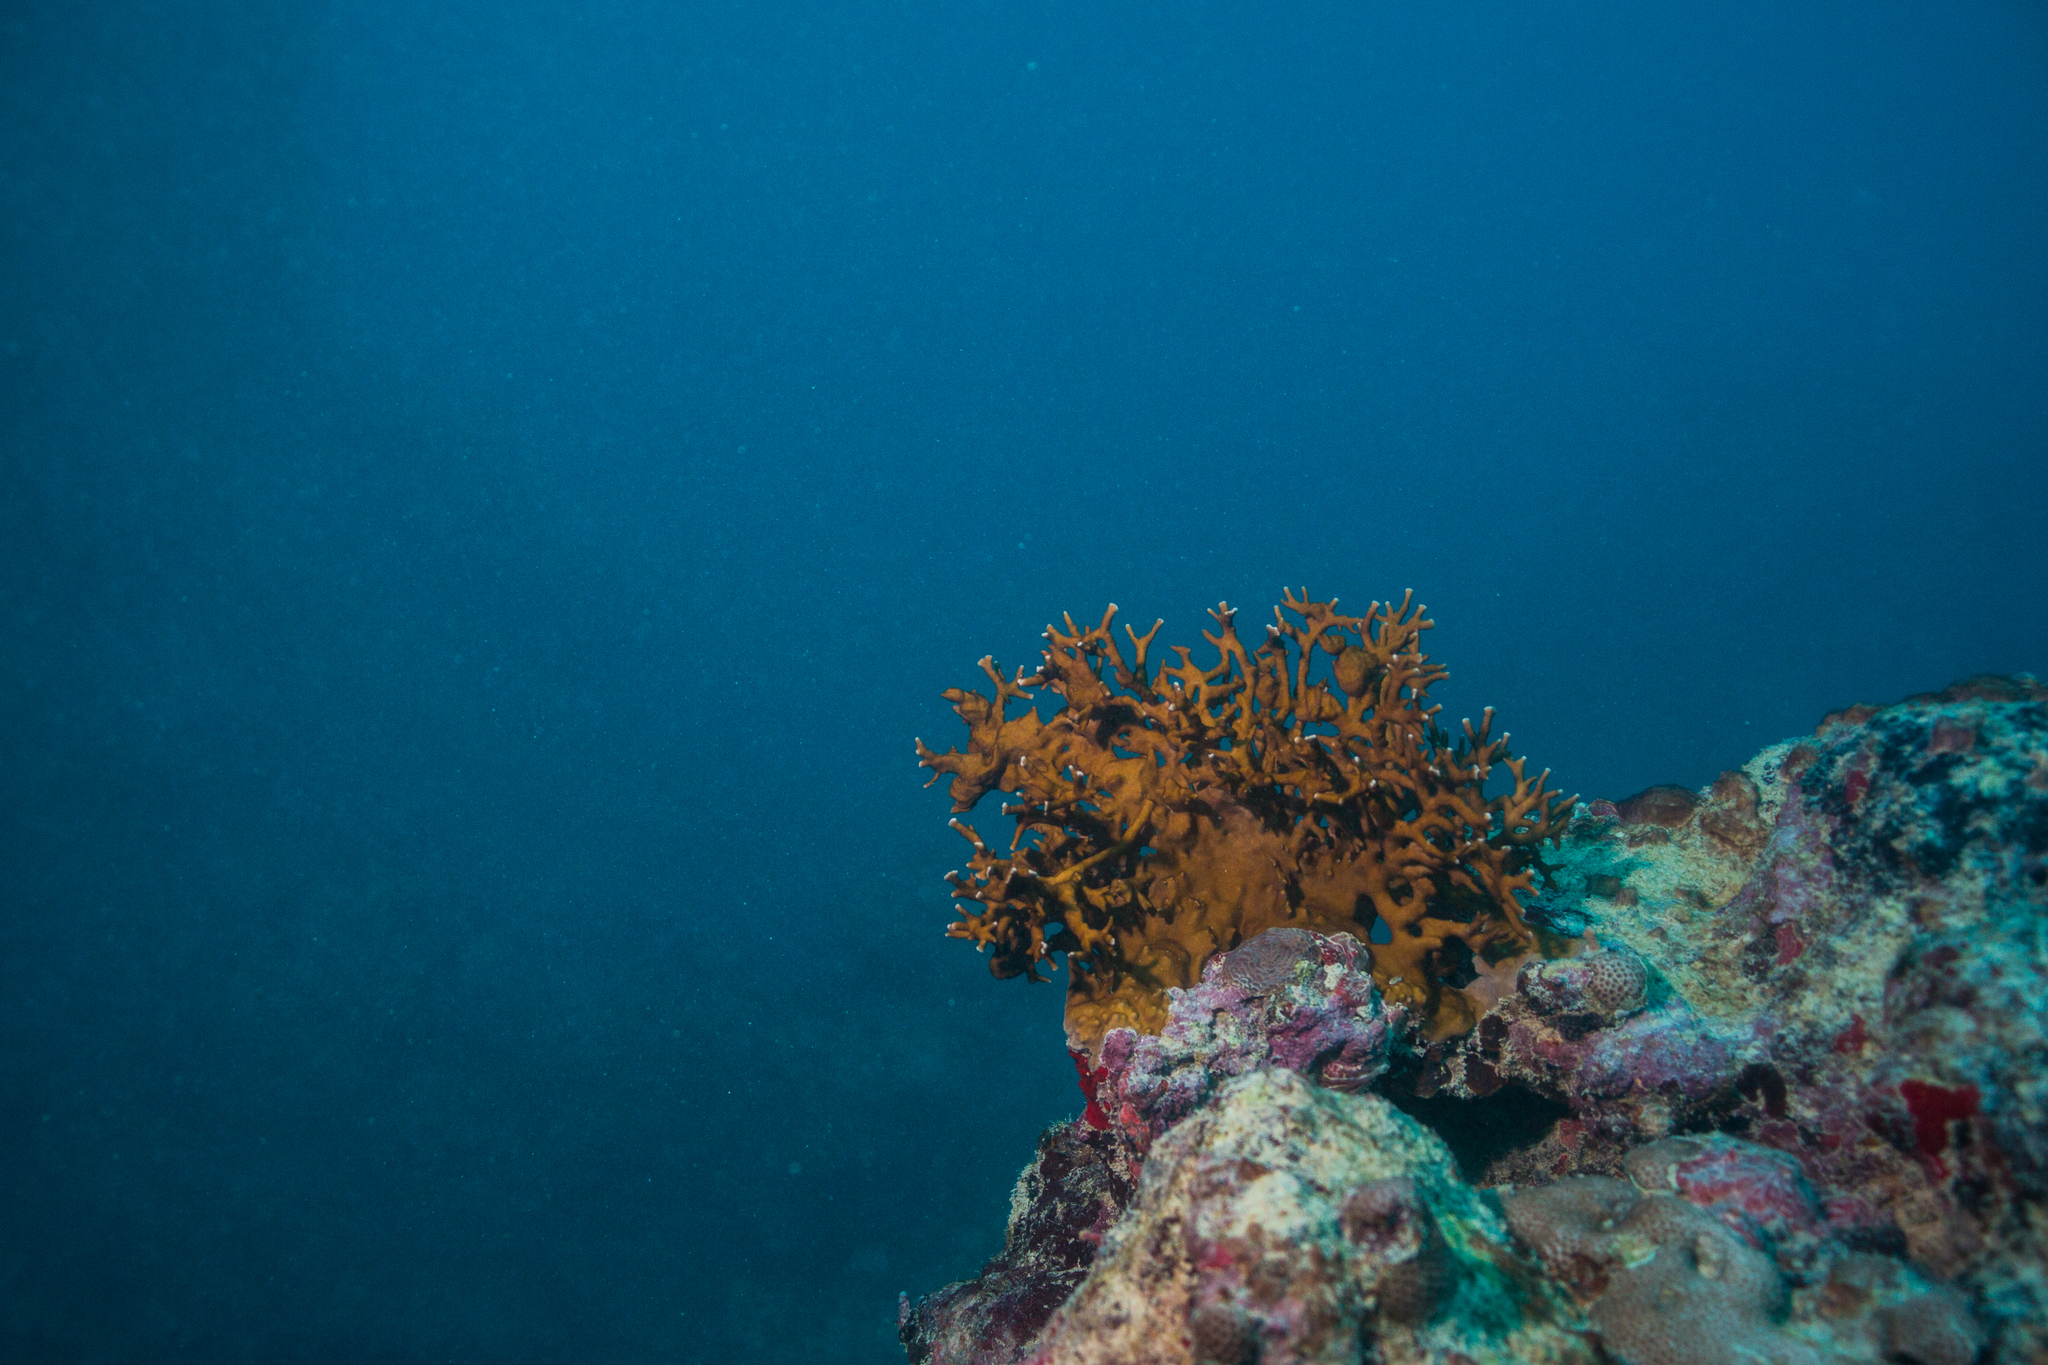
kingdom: Animalia
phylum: Cnidaria
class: Hydrozoa
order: Anthoathecata
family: Milleporidae
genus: Millepora
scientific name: Millepora alcicornis
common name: Branching fire coral
